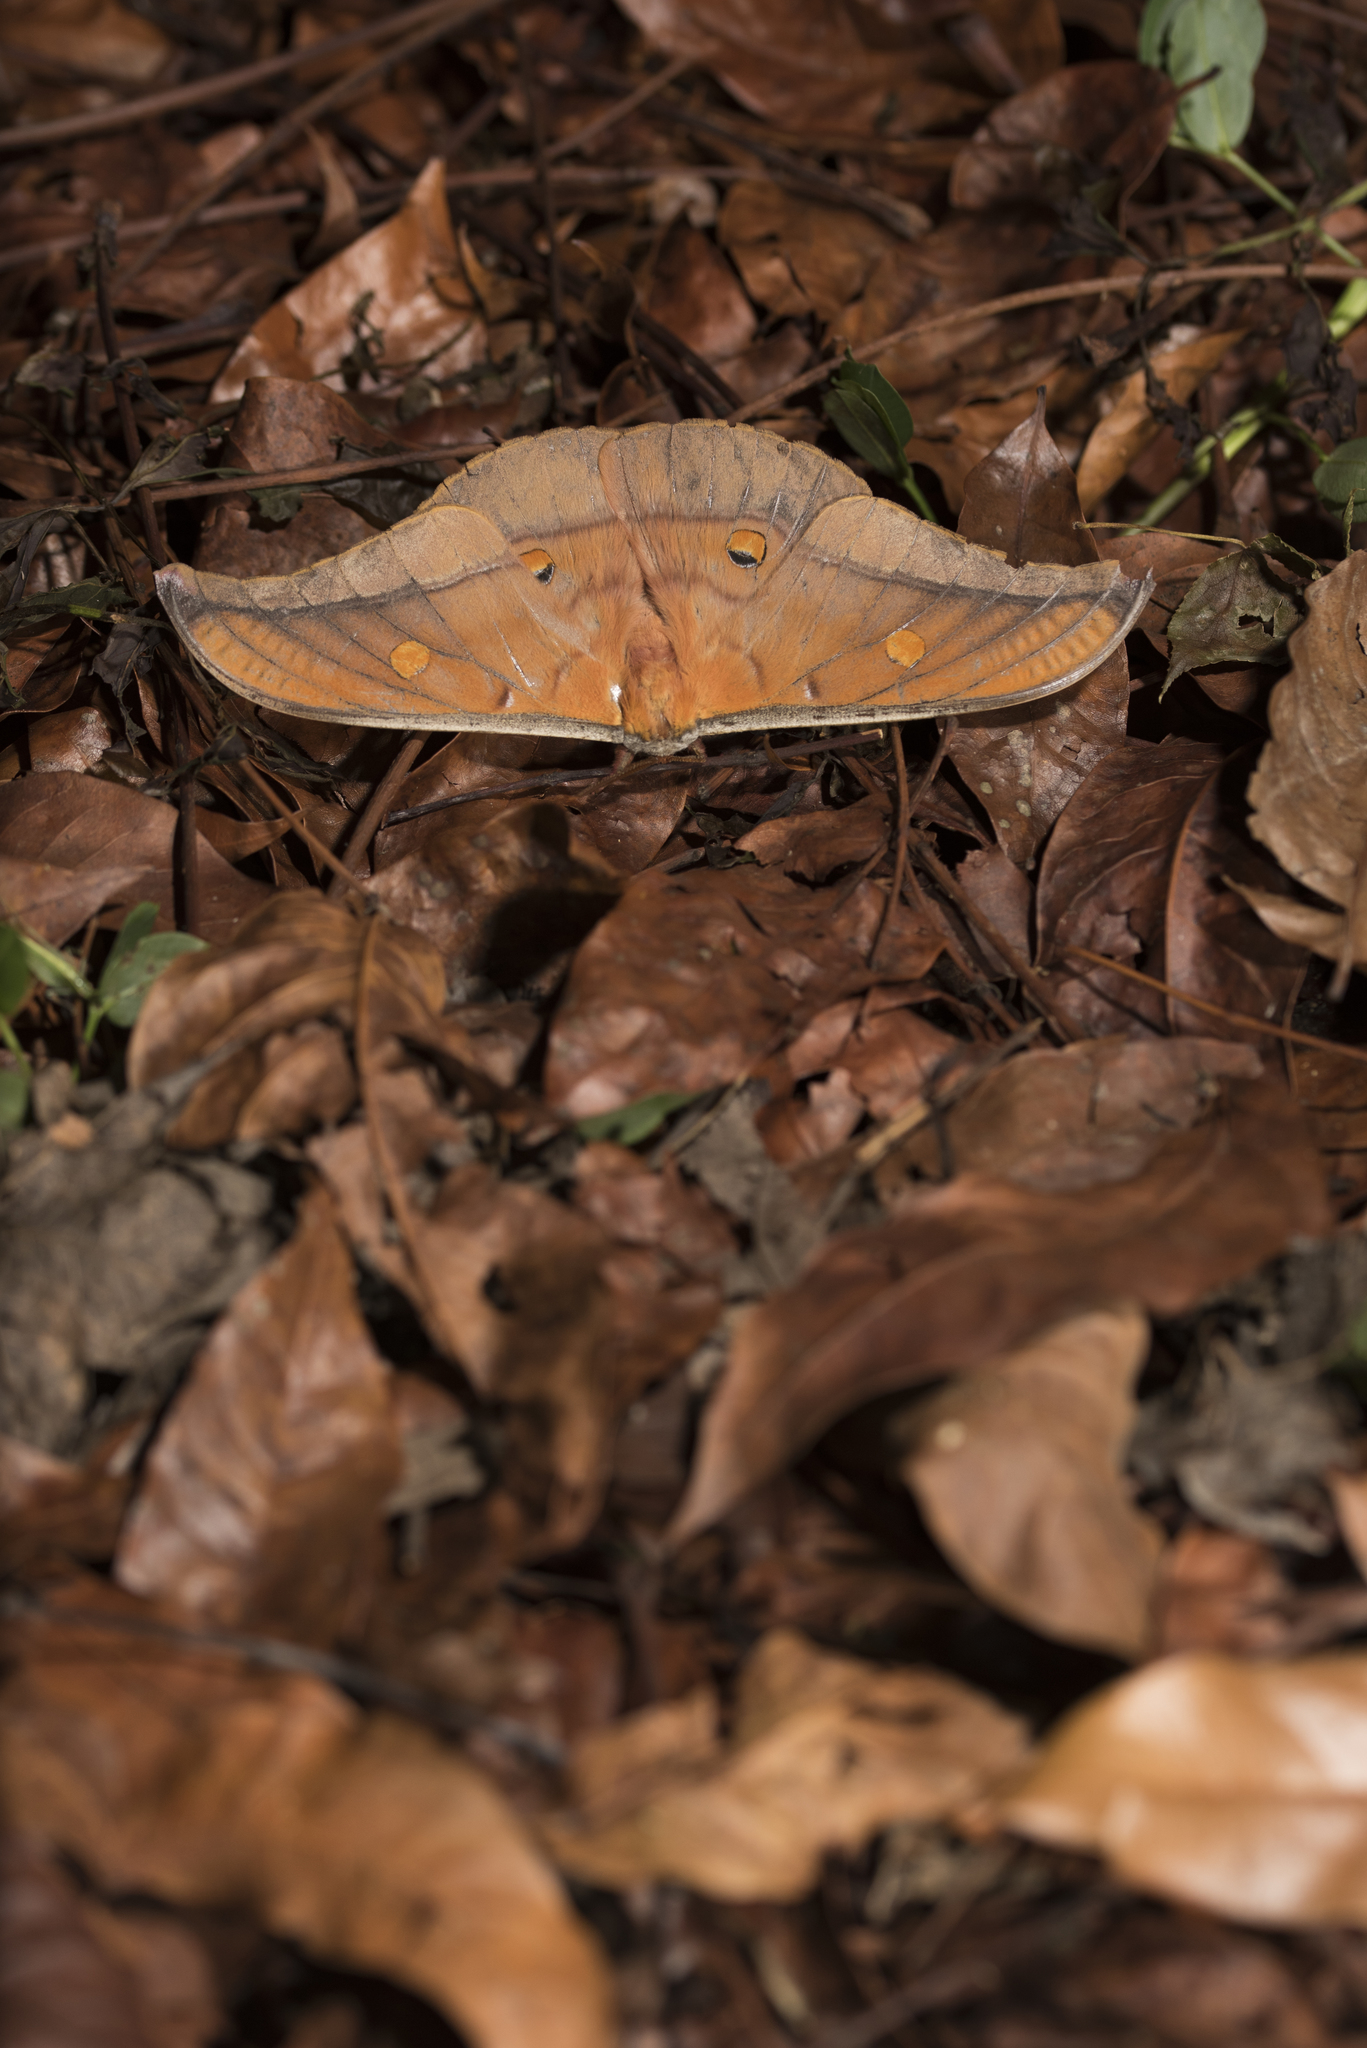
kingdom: Animalia
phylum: Arthropoda
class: Insecta
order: Lepidoptera
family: Saturniidae
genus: Antheraea
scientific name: Antheraea formosana
